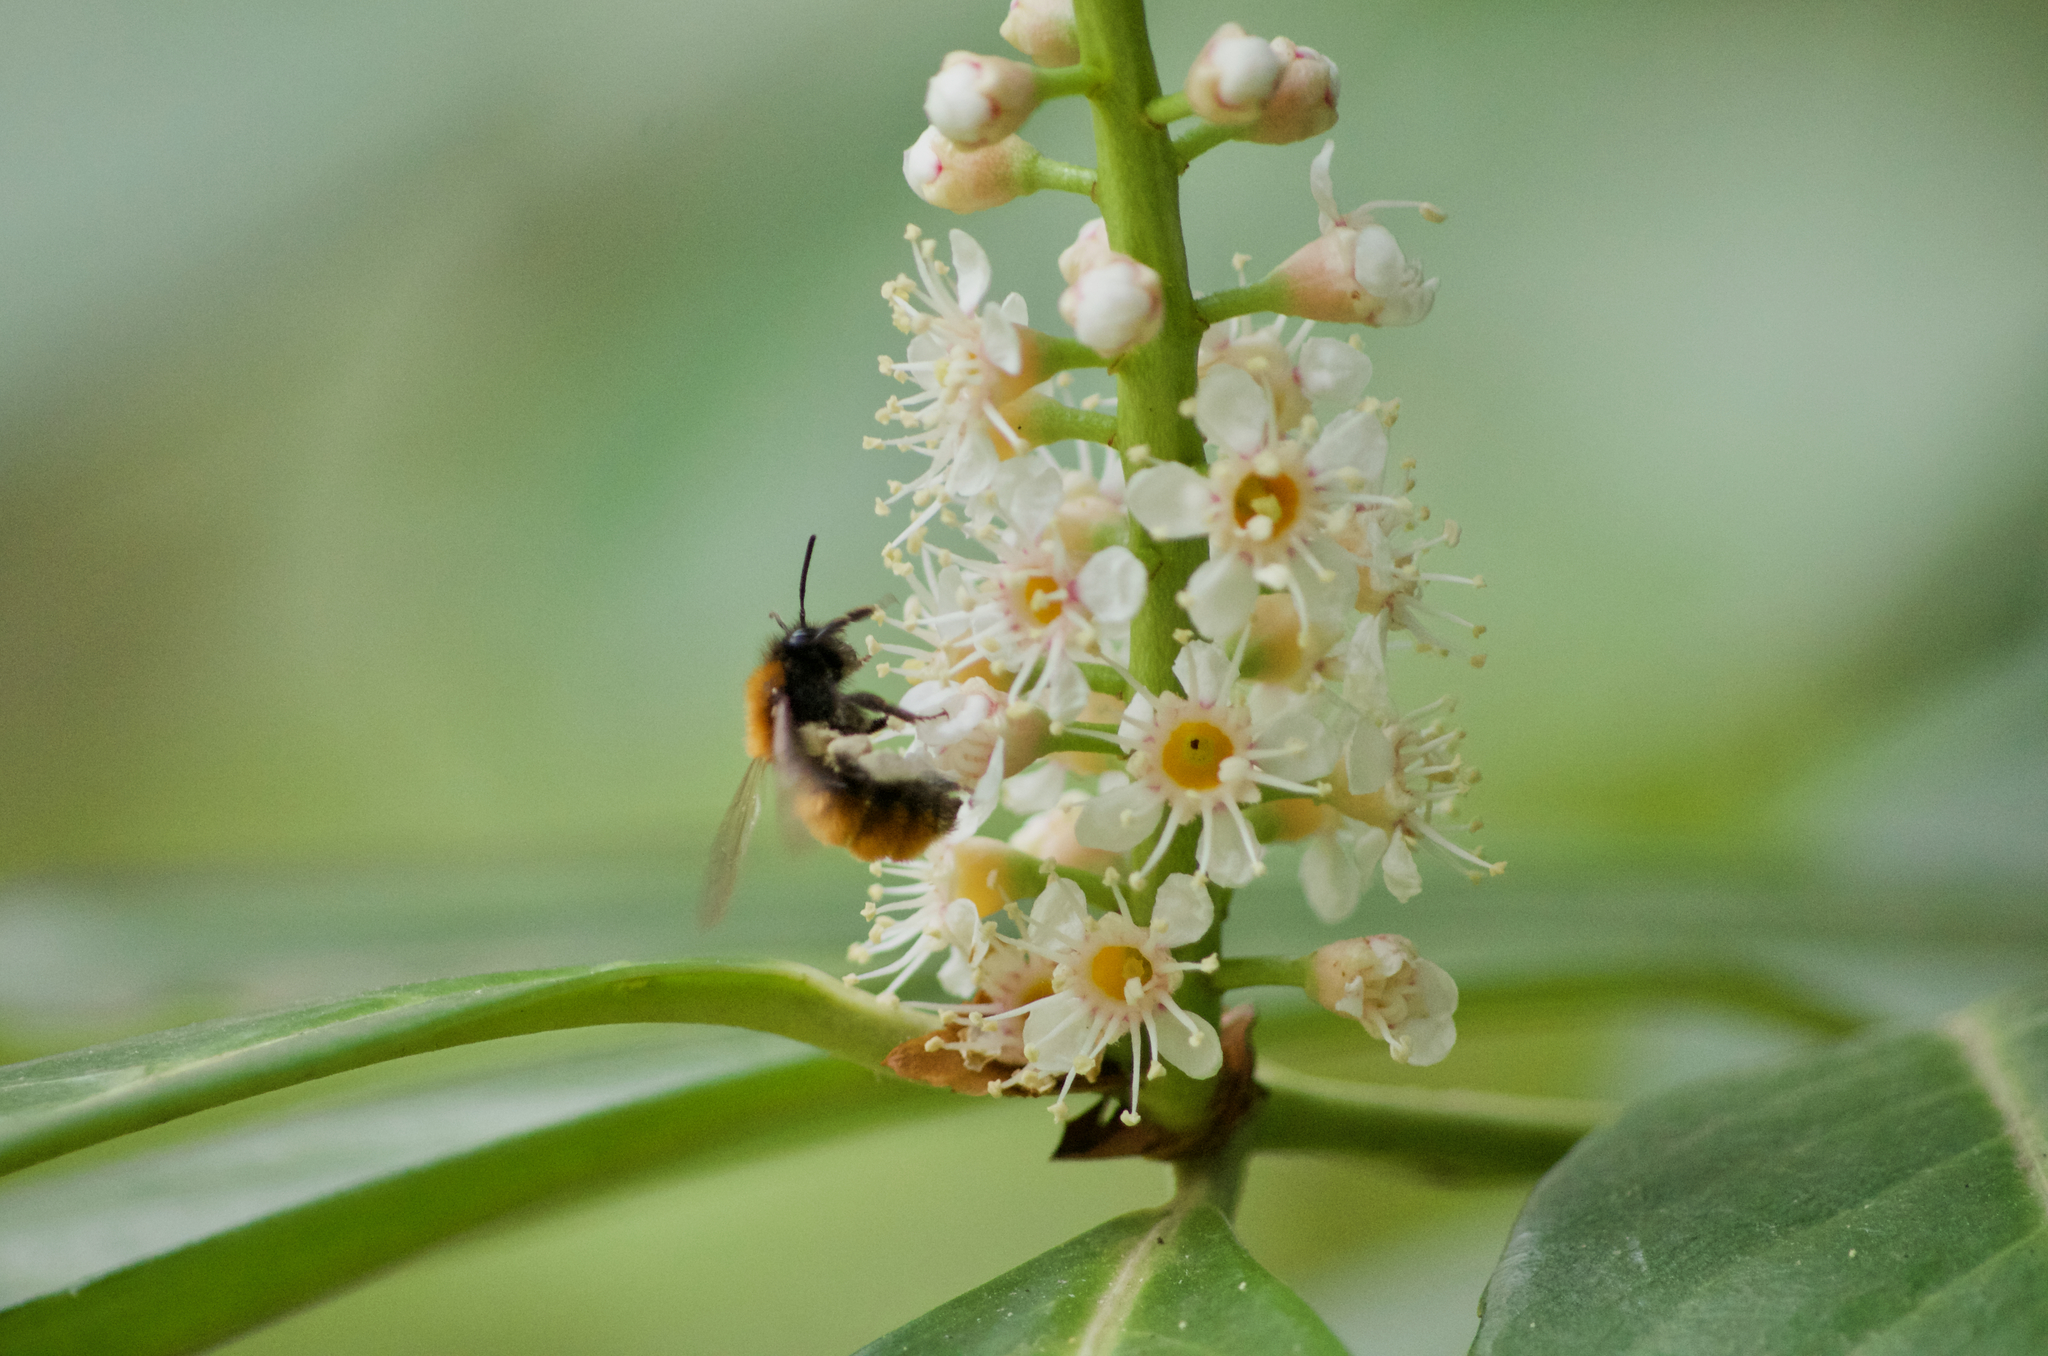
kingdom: Animalia
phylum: Arthropoda
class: Insecta
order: Hymenoptera
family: Andrenidae
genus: Andrena
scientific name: Andrena fulva
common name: Tawny mining bee
